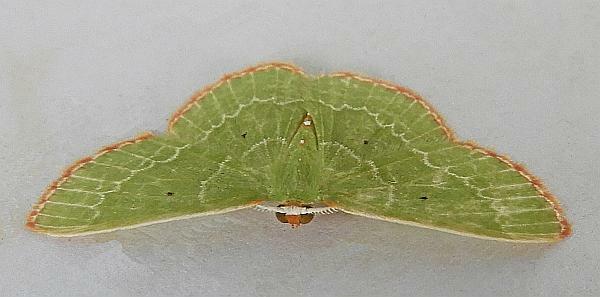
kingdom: Animalia
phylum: Arthropoda
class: Insecta
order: Lepidoptera
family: Geometridae
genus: Nemoria
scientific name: Nemoria catachloa
